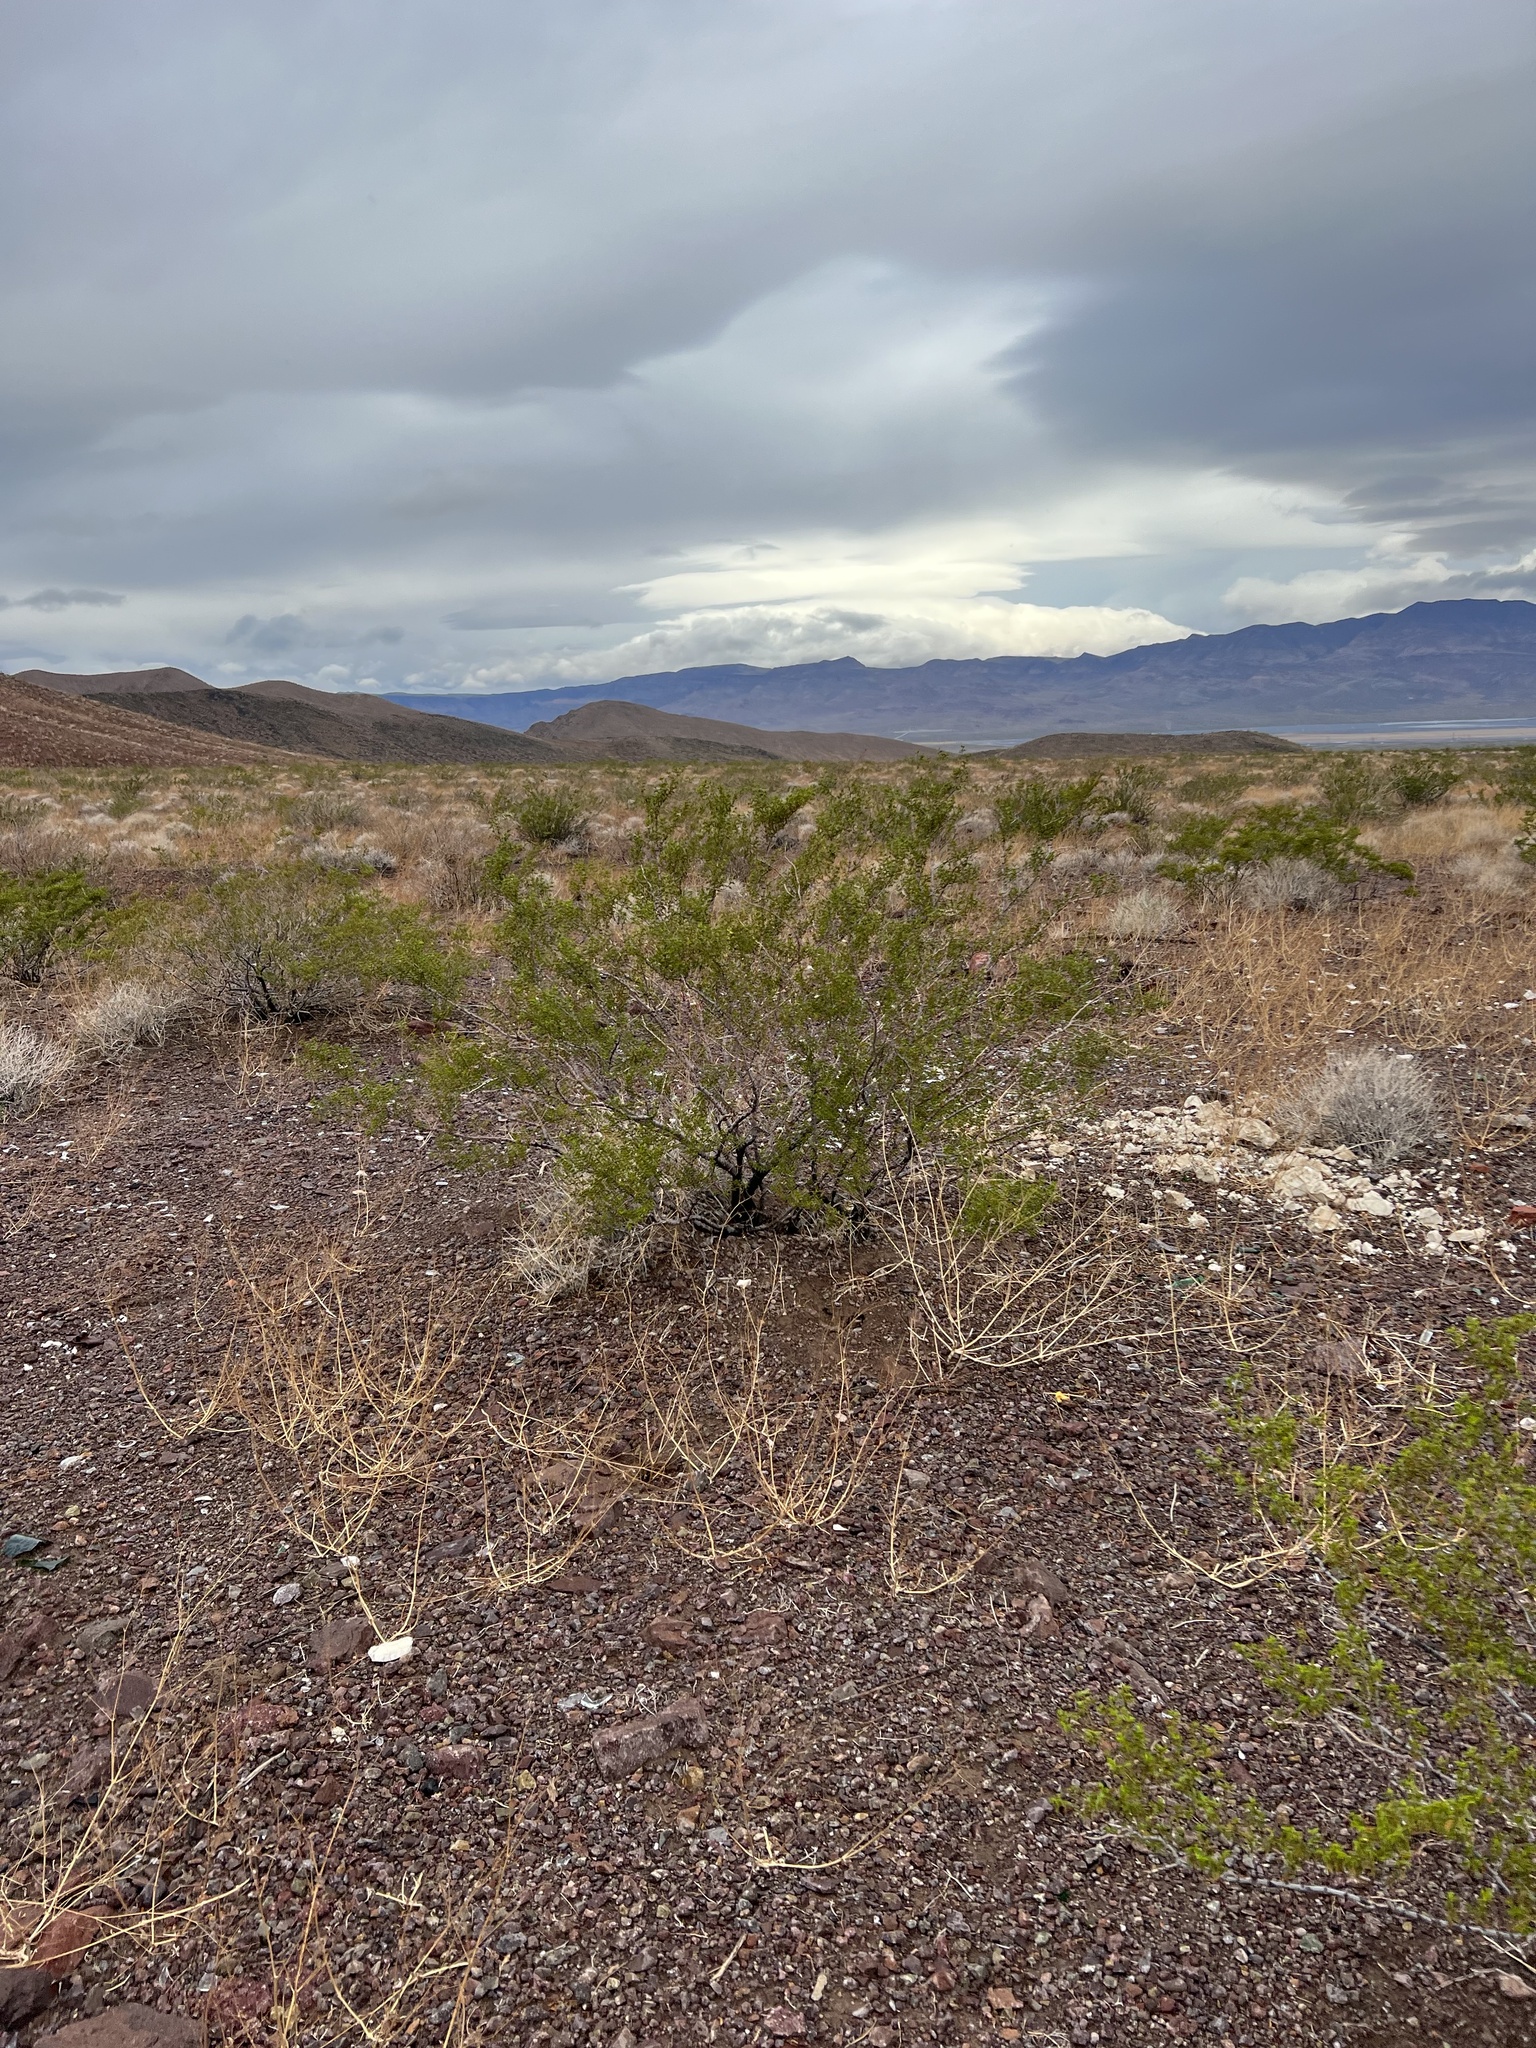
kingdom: Plantae
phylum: Tracheophyta
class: Magnoliopsida
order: Zygophyllales
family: Zygophyllaceae
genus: Larrea
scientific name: Larrea tridentata
